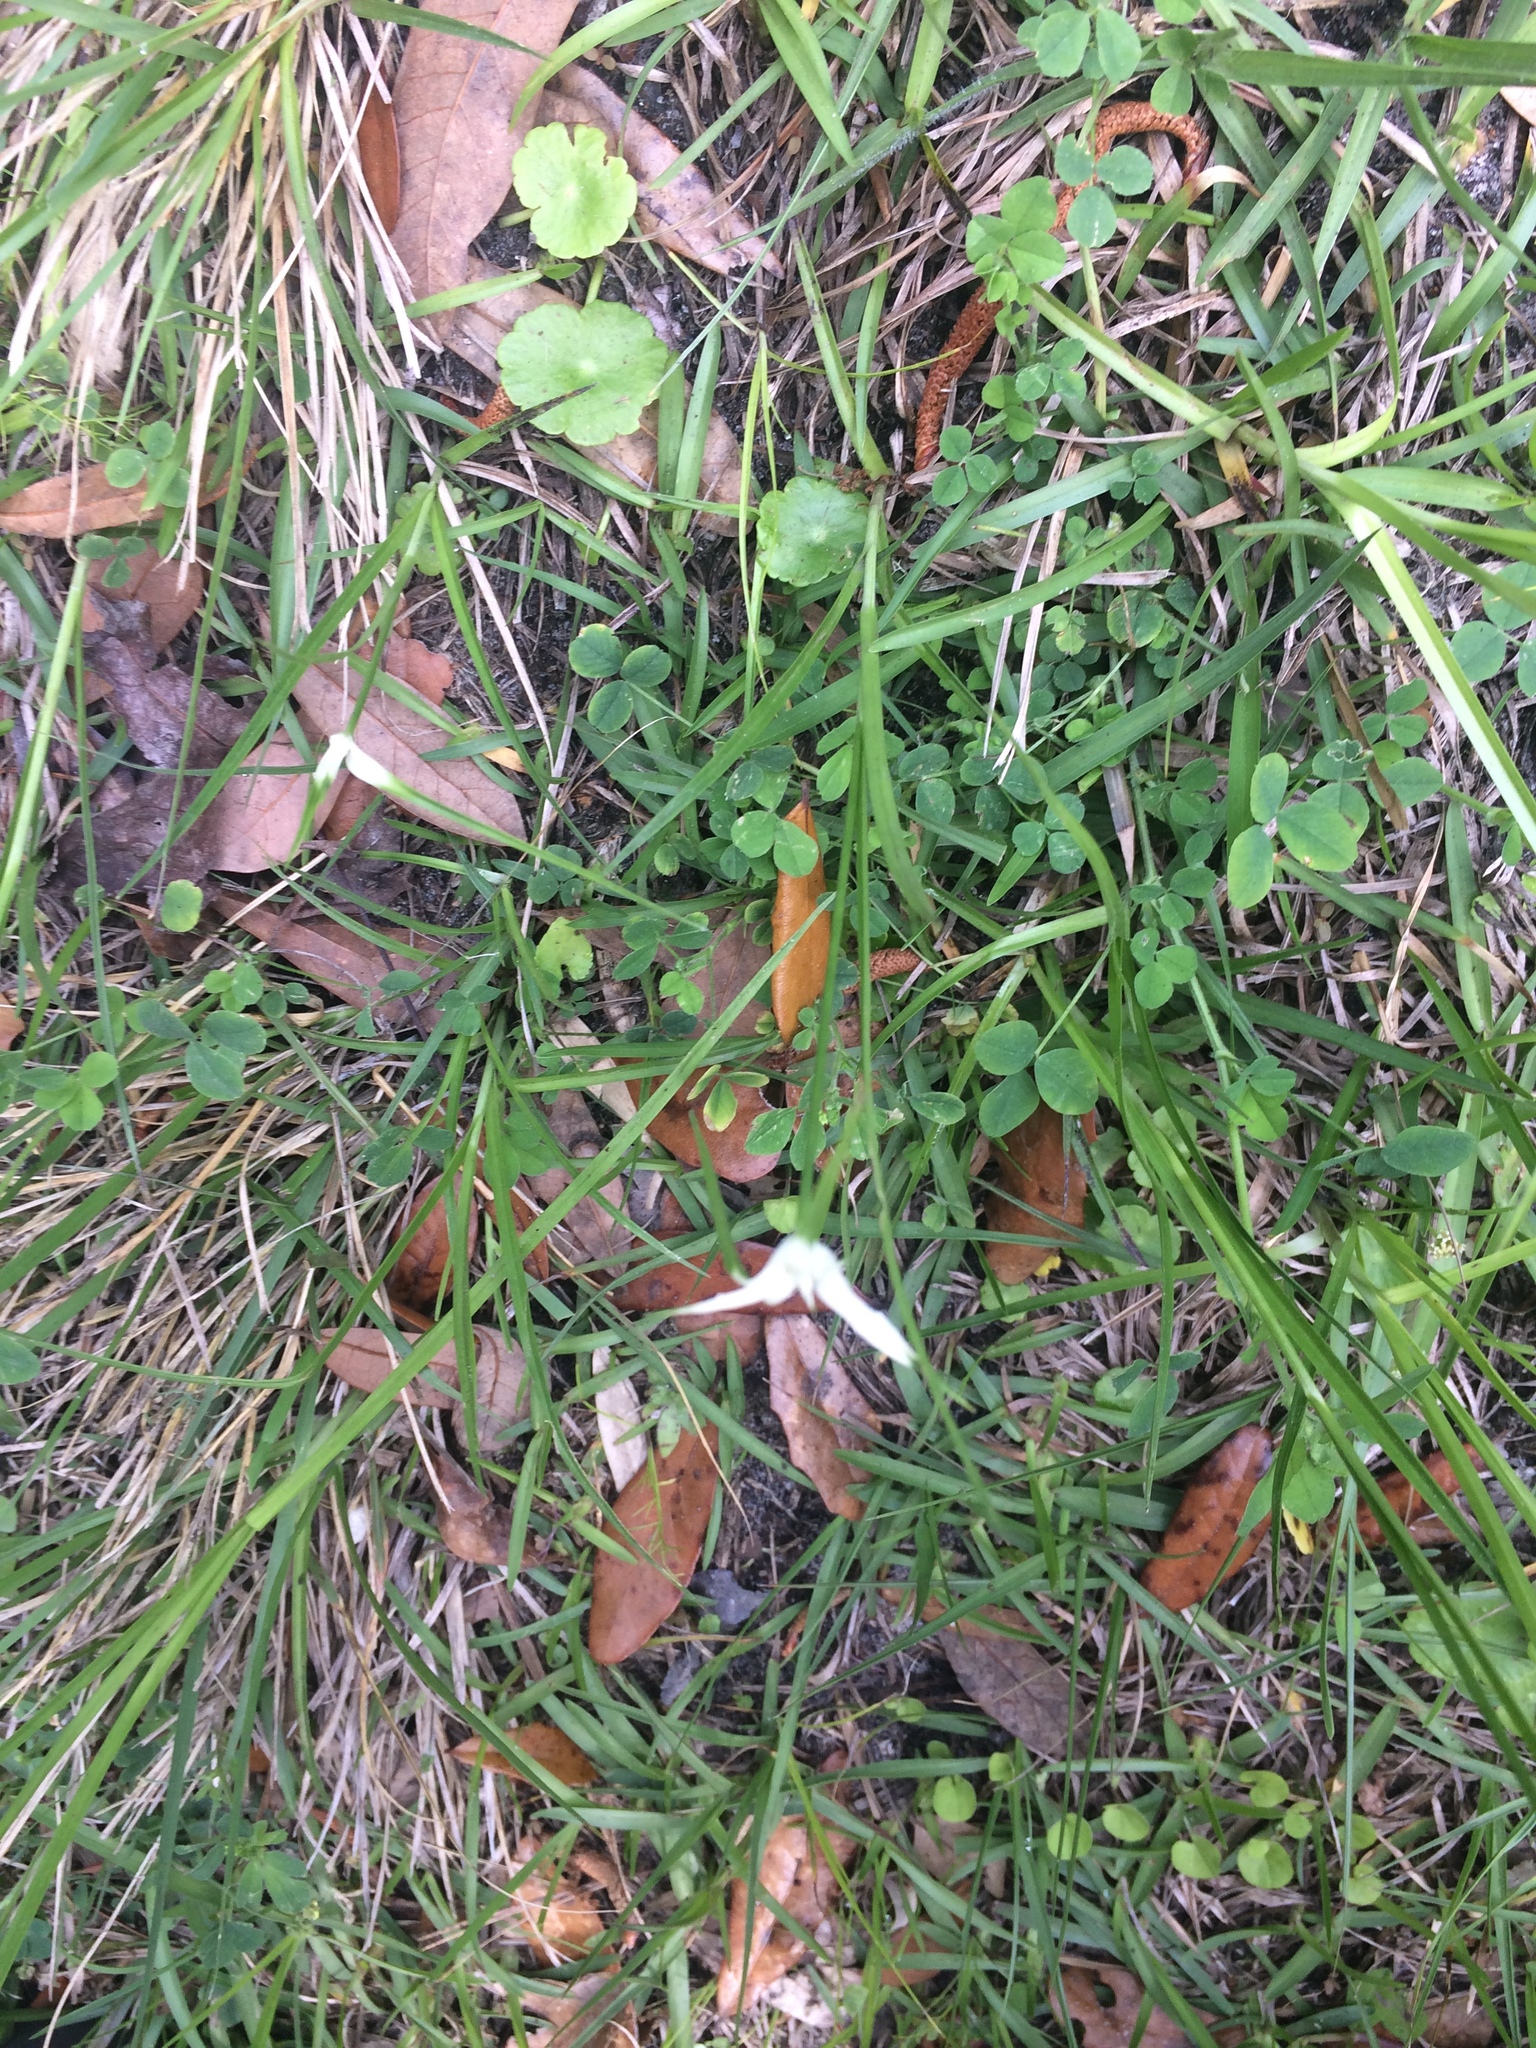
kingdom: Plantae
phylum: Tracheophyta
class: Liliopsida
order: Poales
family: Cyperaceae
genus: Rhynchospora
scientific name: Rhynchospora colorata
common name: Star sedge
